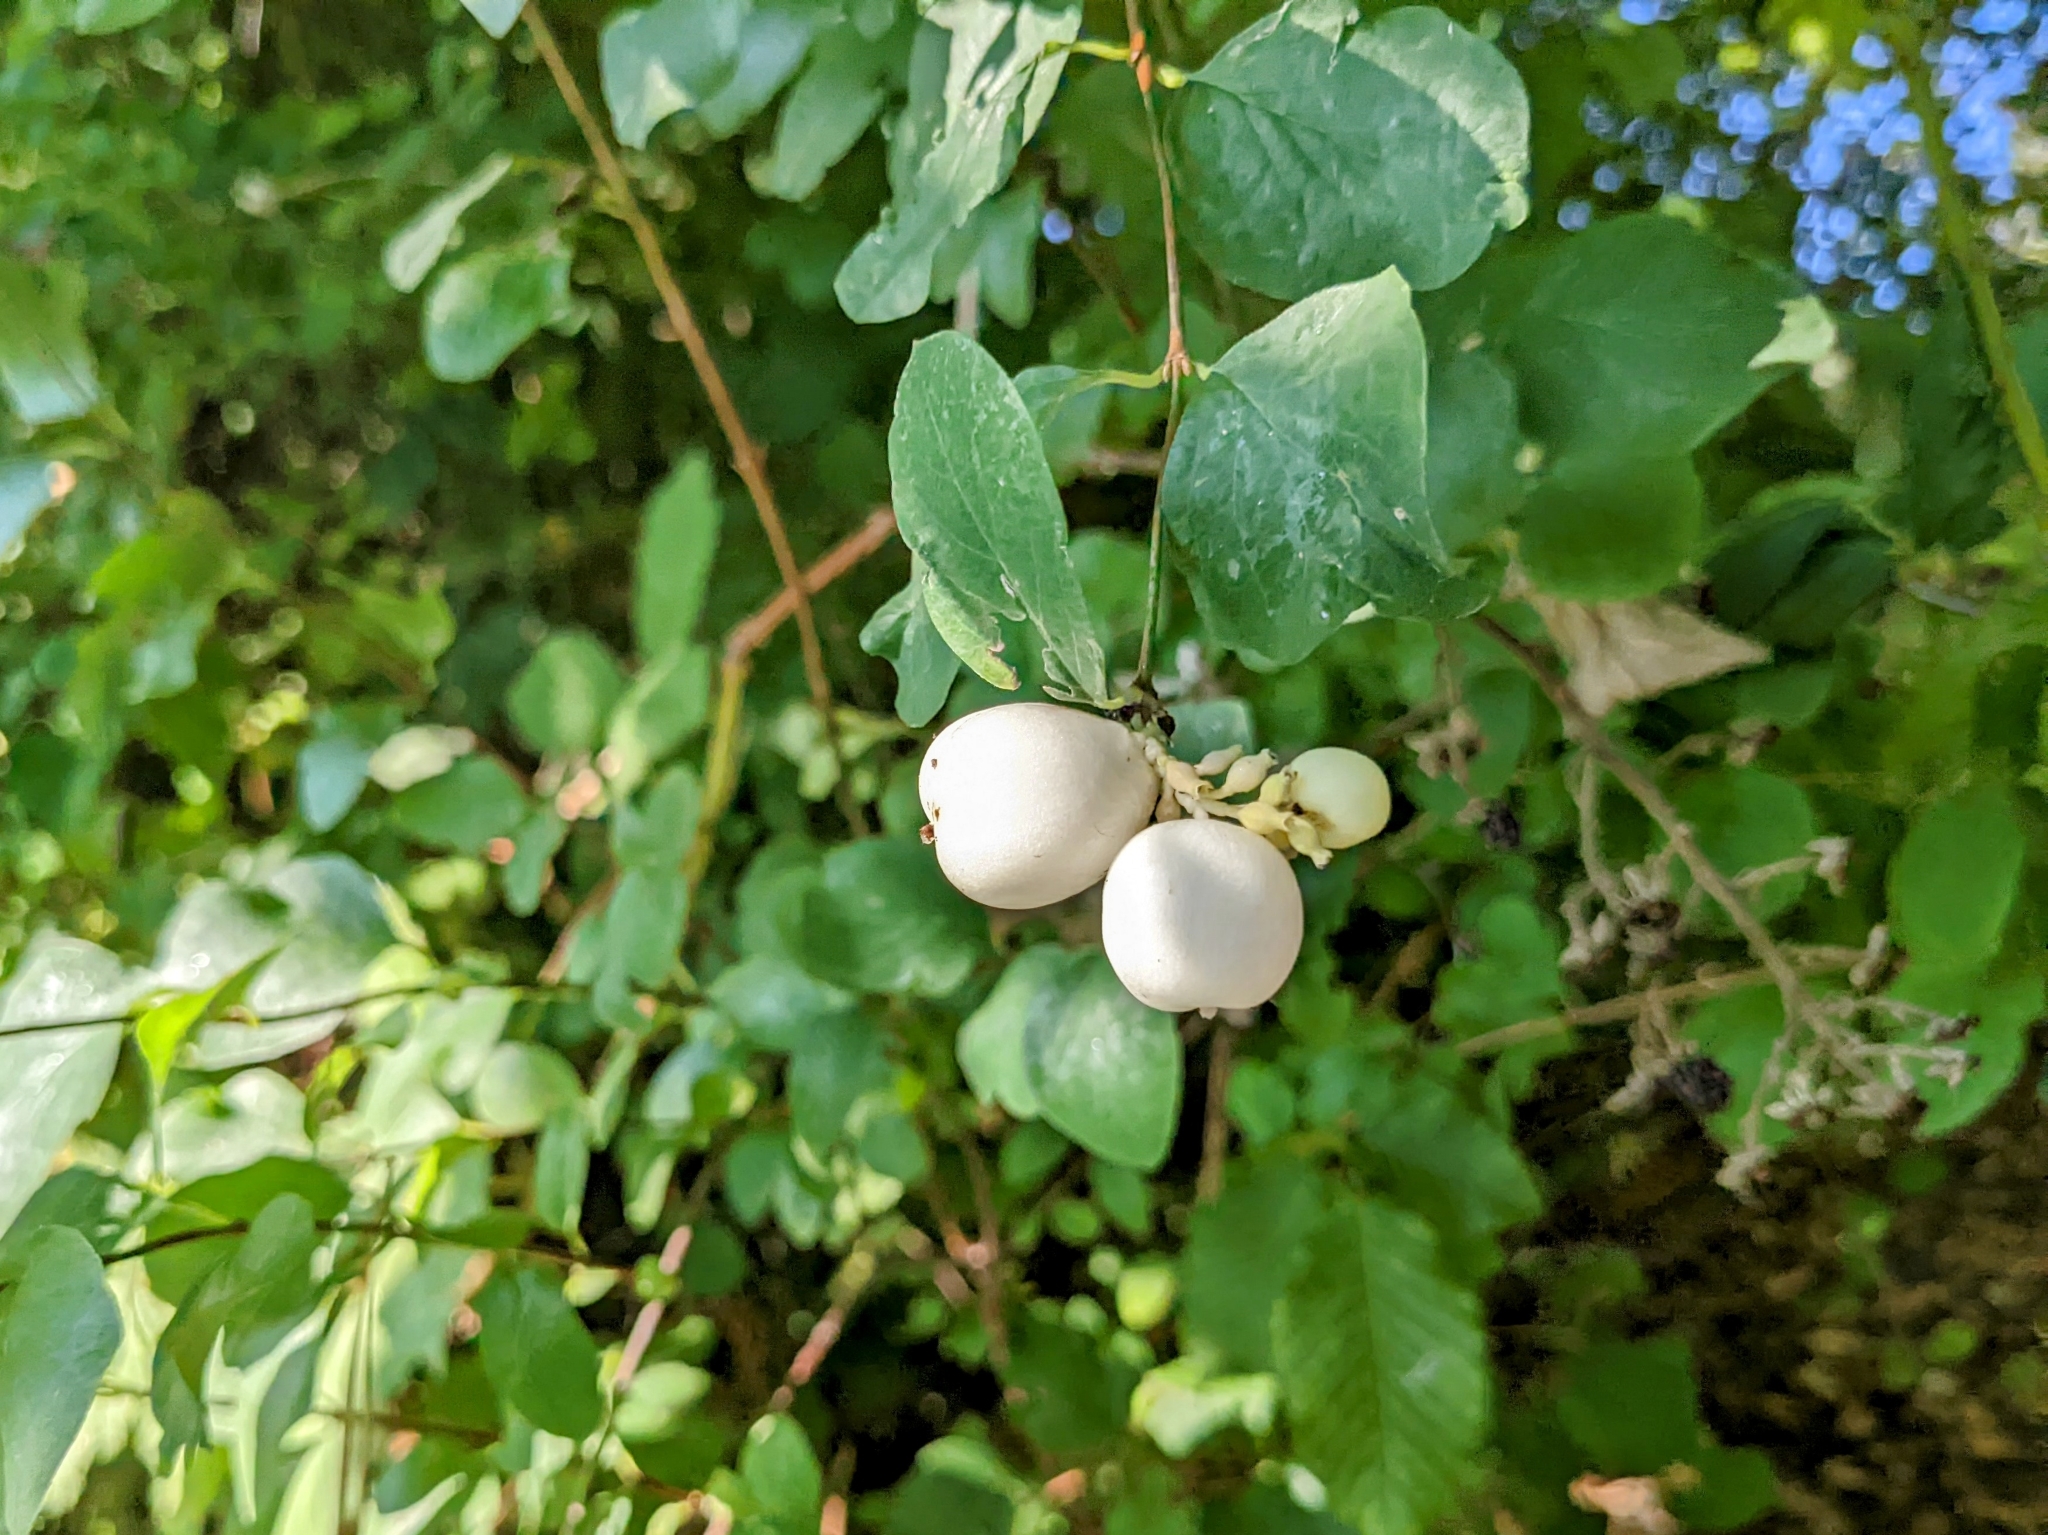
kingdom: Plantae
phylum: Tracheophyta
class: Magnoliopsida
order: Dipsacales
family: Caprifoliaceae
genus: Symphoricarpos
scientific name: Symphoricarpos albus
